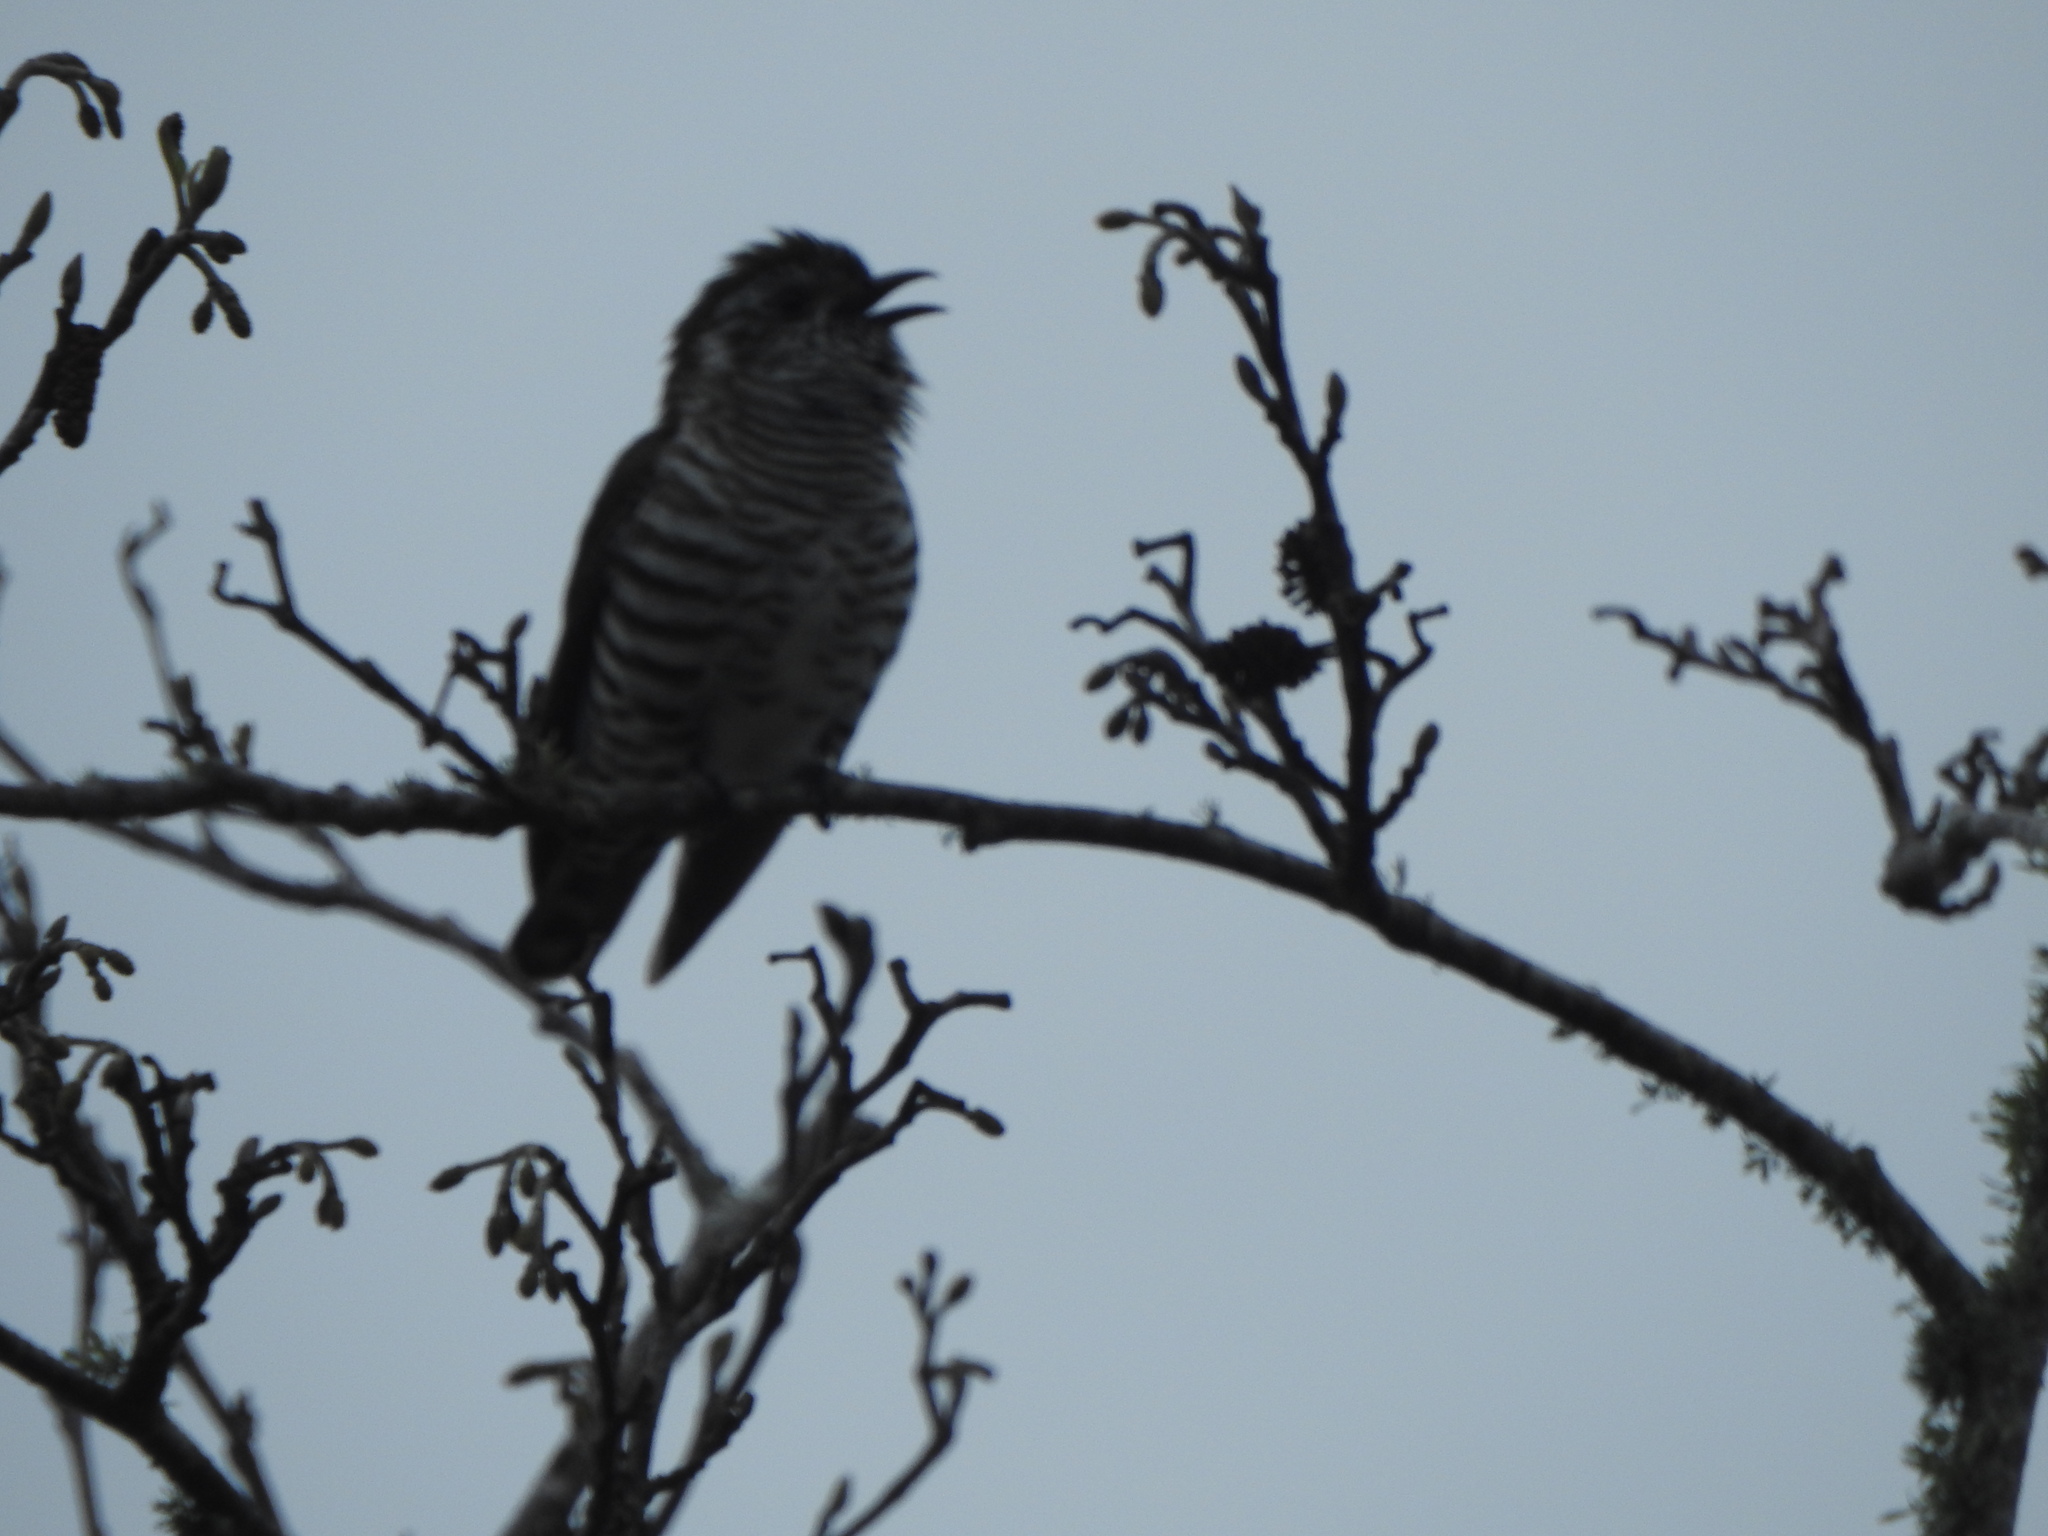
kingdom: Animalia
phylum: Chordata
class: Aves
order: Cuculiformes
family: Cuculidae
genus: Chrysococcyx
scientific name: Chrysococcyx lucidus
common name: Shining bronze cuckoo
